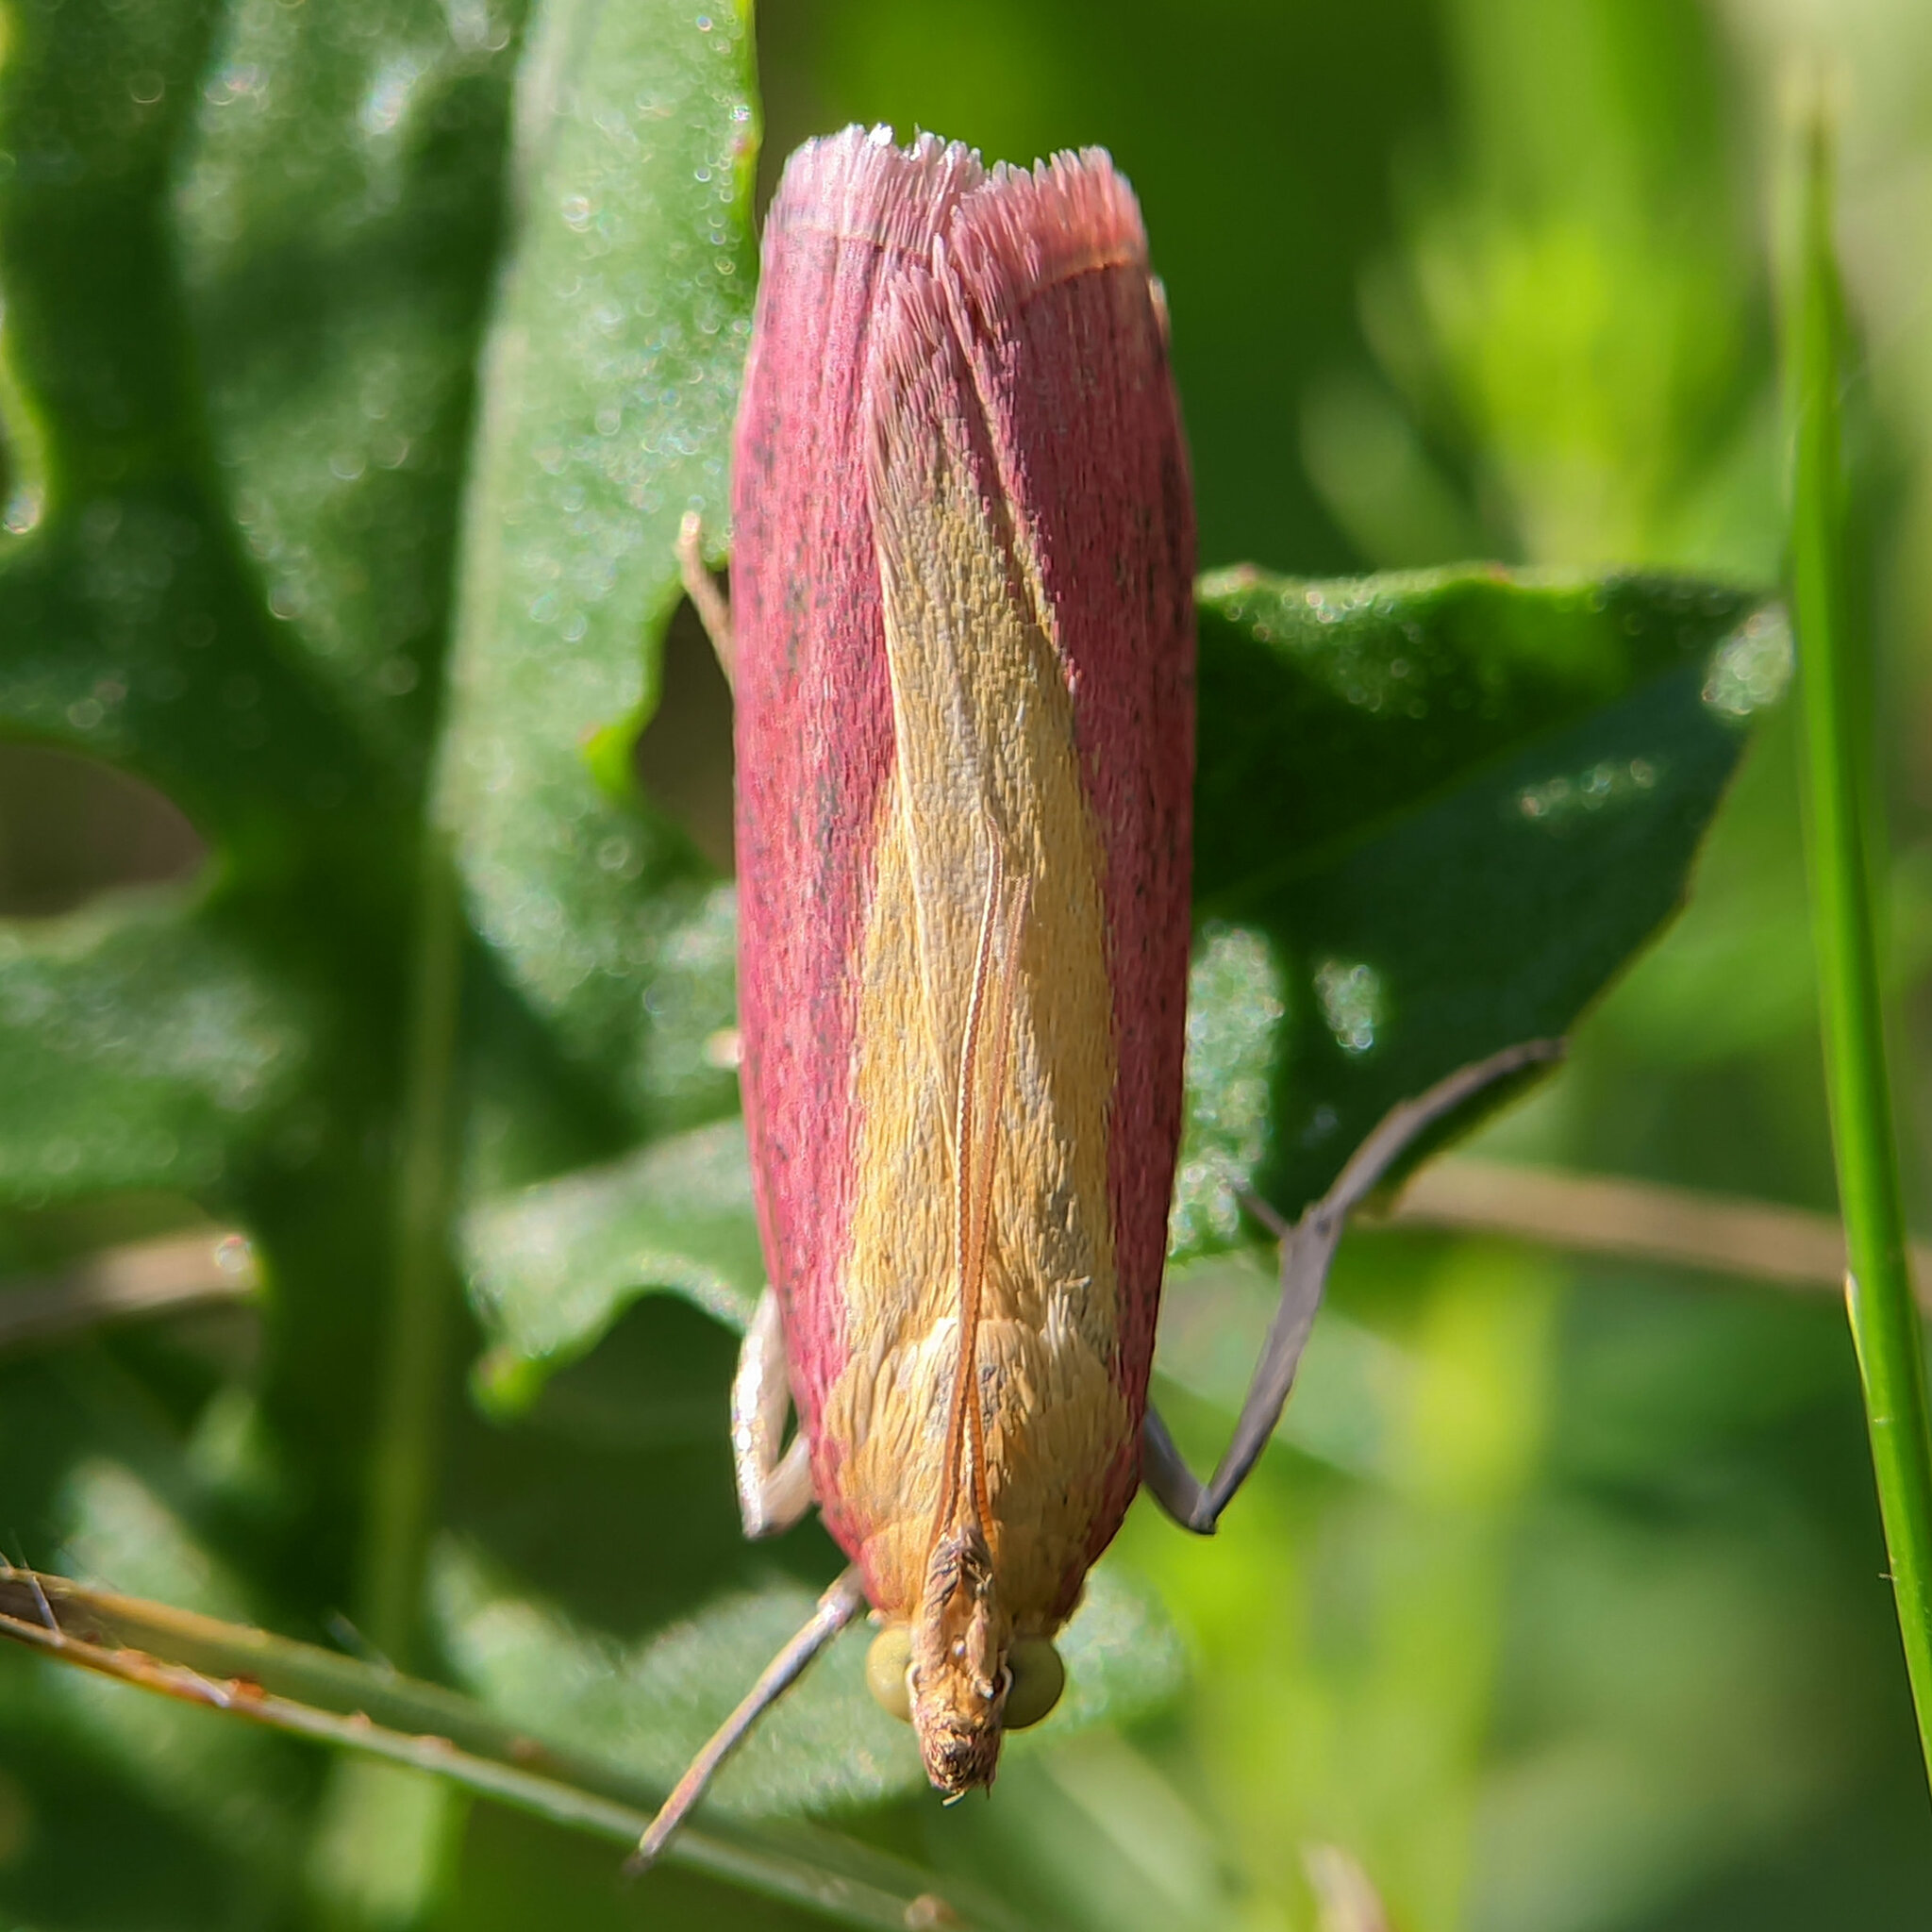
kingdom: Animalia
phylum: Arthropoda
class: Insecta
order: Lepidoptera
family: Pyralidae
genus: Oncocera
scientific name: Oncocera semirubella
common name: Rosy-striped knot-horn
